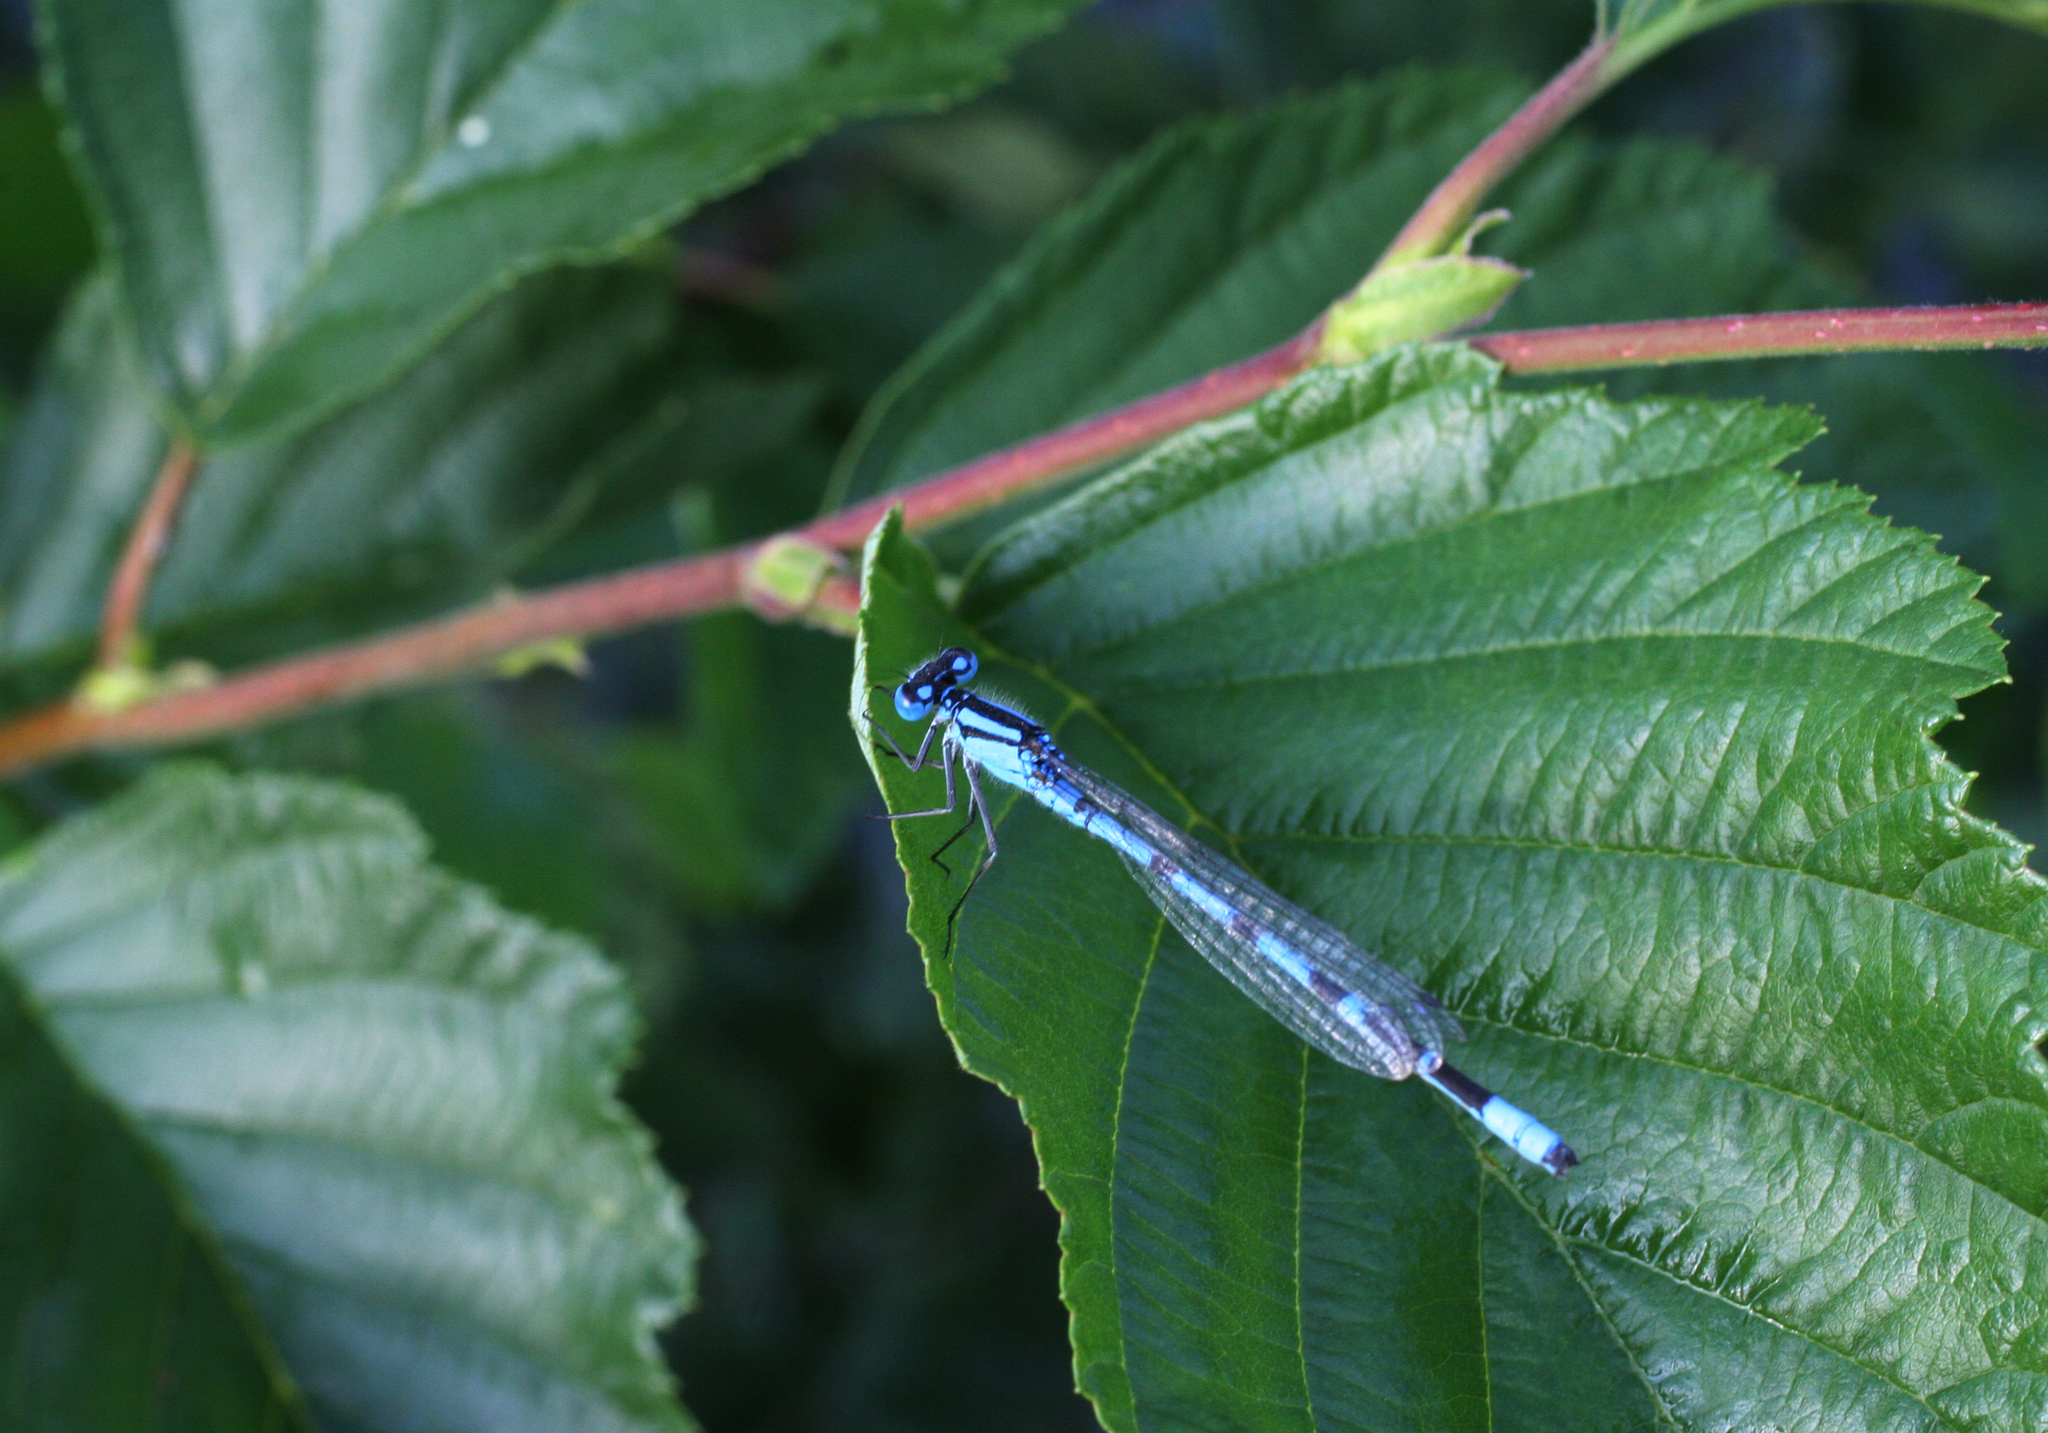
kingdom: Animalia
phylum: Arthropoda
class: Insecta
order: Odonata
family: Coenagrionidae
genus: Enallagma
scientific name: Enallagma cyathigerum
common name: Common blue damselfly
